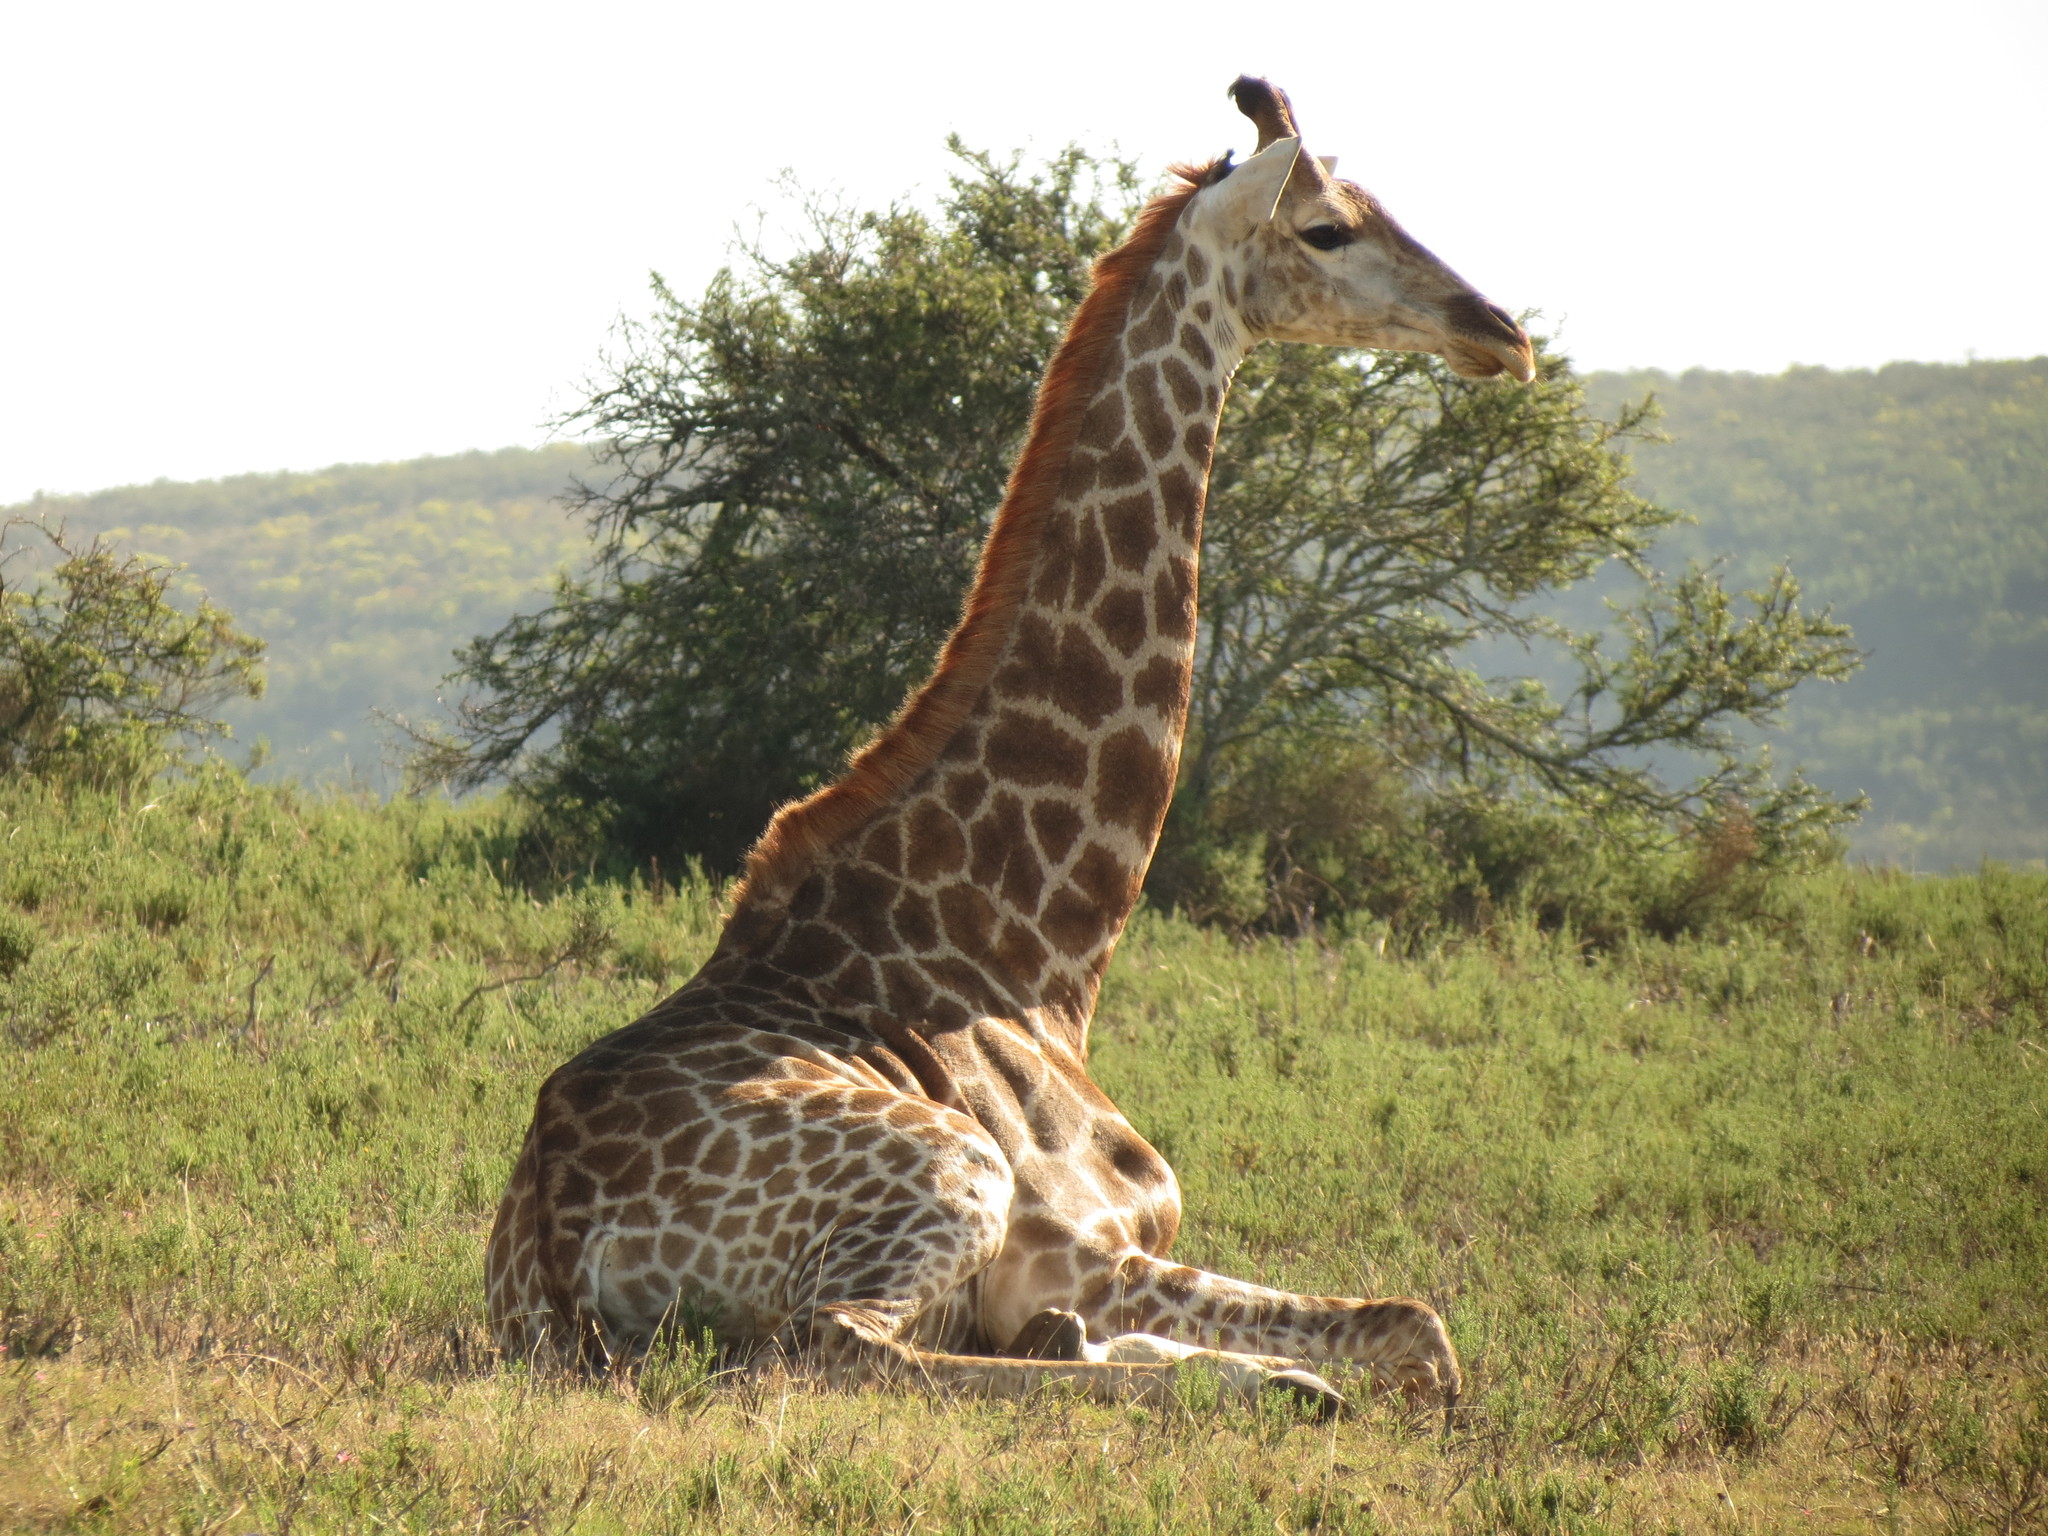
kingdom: Animalia
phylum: Chordata
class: Mammalia
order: Artiodactyla
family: Giraffidae
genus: Giraffa
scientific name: Giraffa giraffa
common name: Southern giraffe
